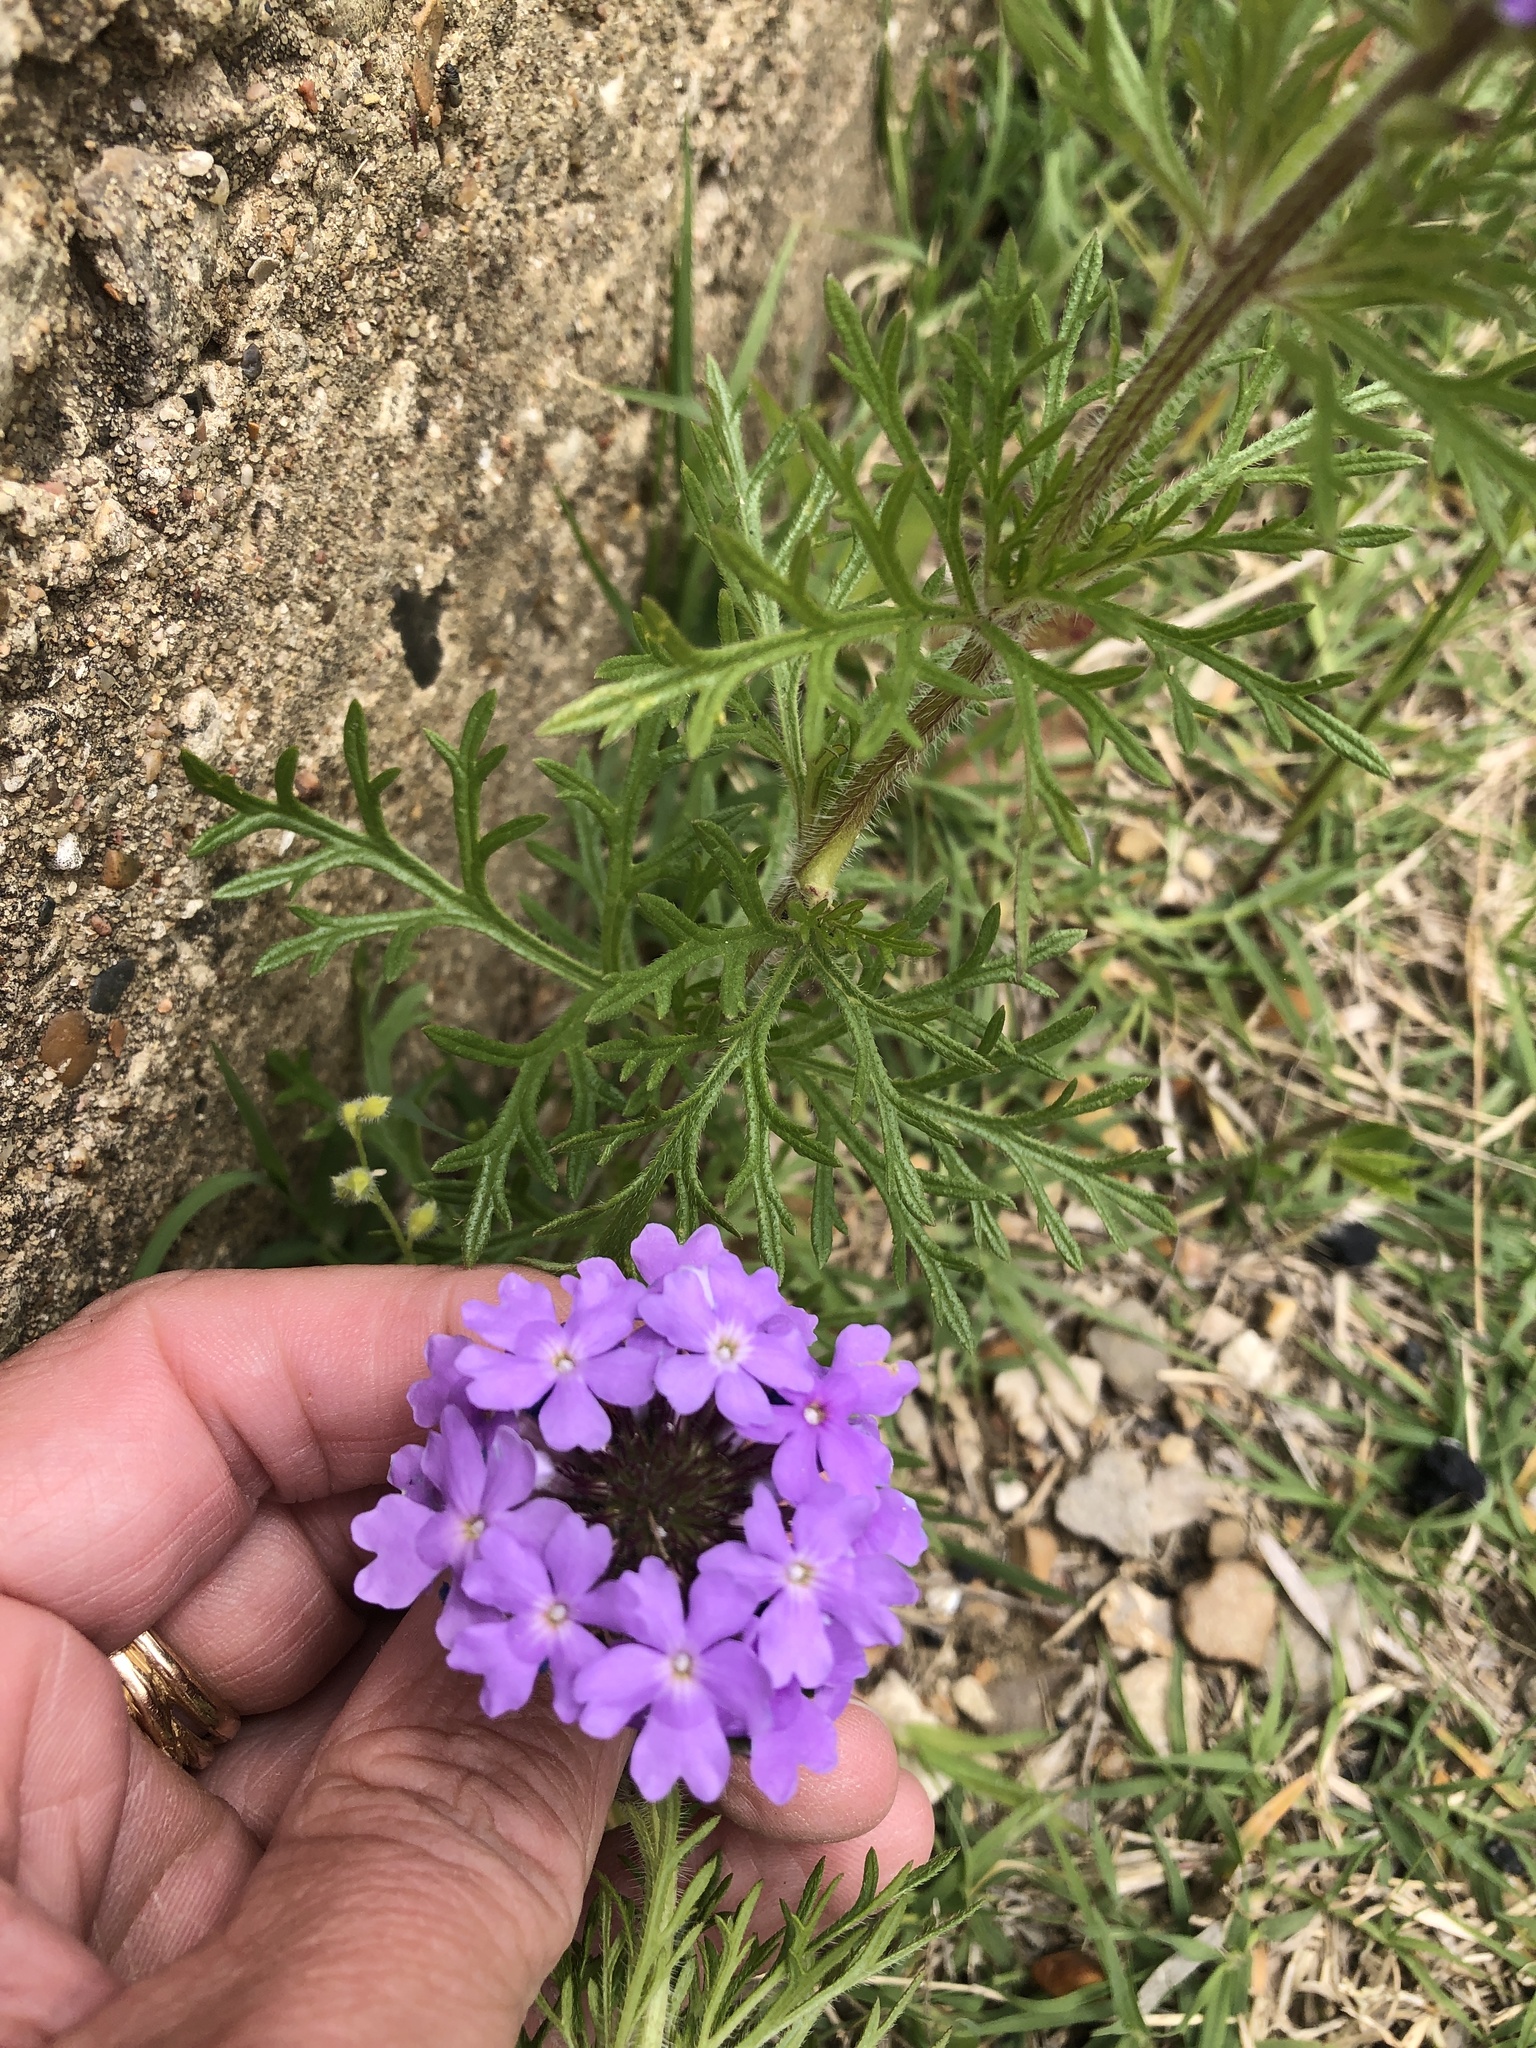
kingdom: Plantae
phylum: Tracheophyta
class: Magnoliopsida
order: Lamiales
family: Verbenaceae
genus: Verbena
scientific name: Verbena bipinnatifida
